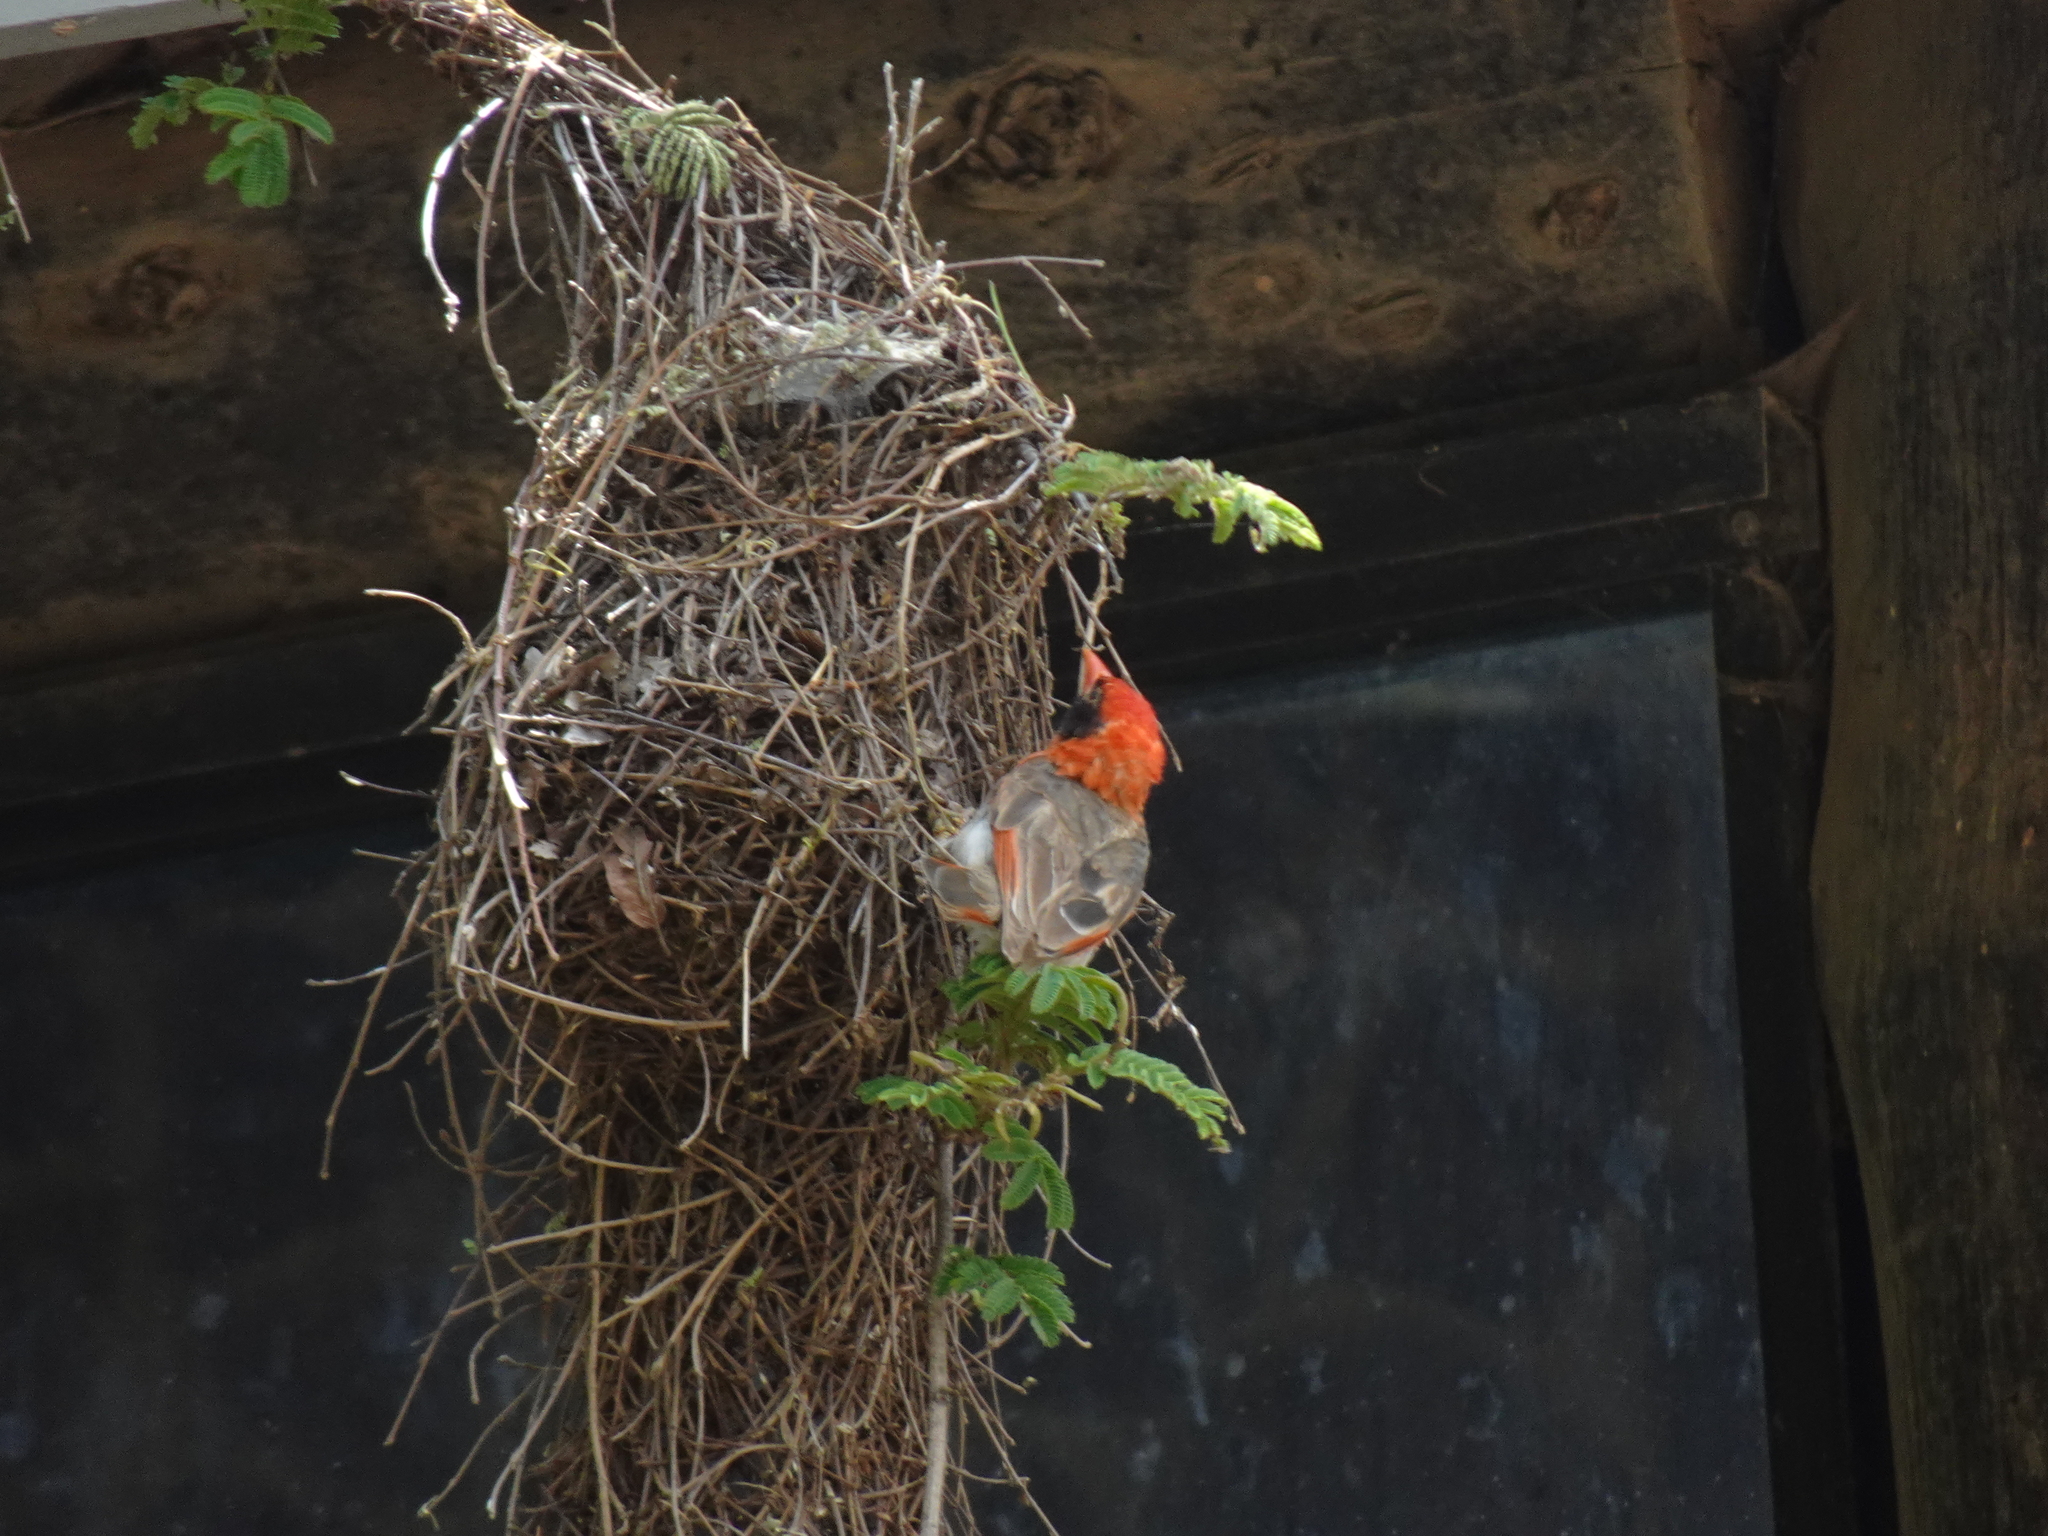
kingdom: Animalia
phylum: Chordata
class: Aves
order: Passeriformes
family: Ploceidae
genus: Anaplectes
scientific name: Anaplectes rubriceps
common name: Red-headed weaver
